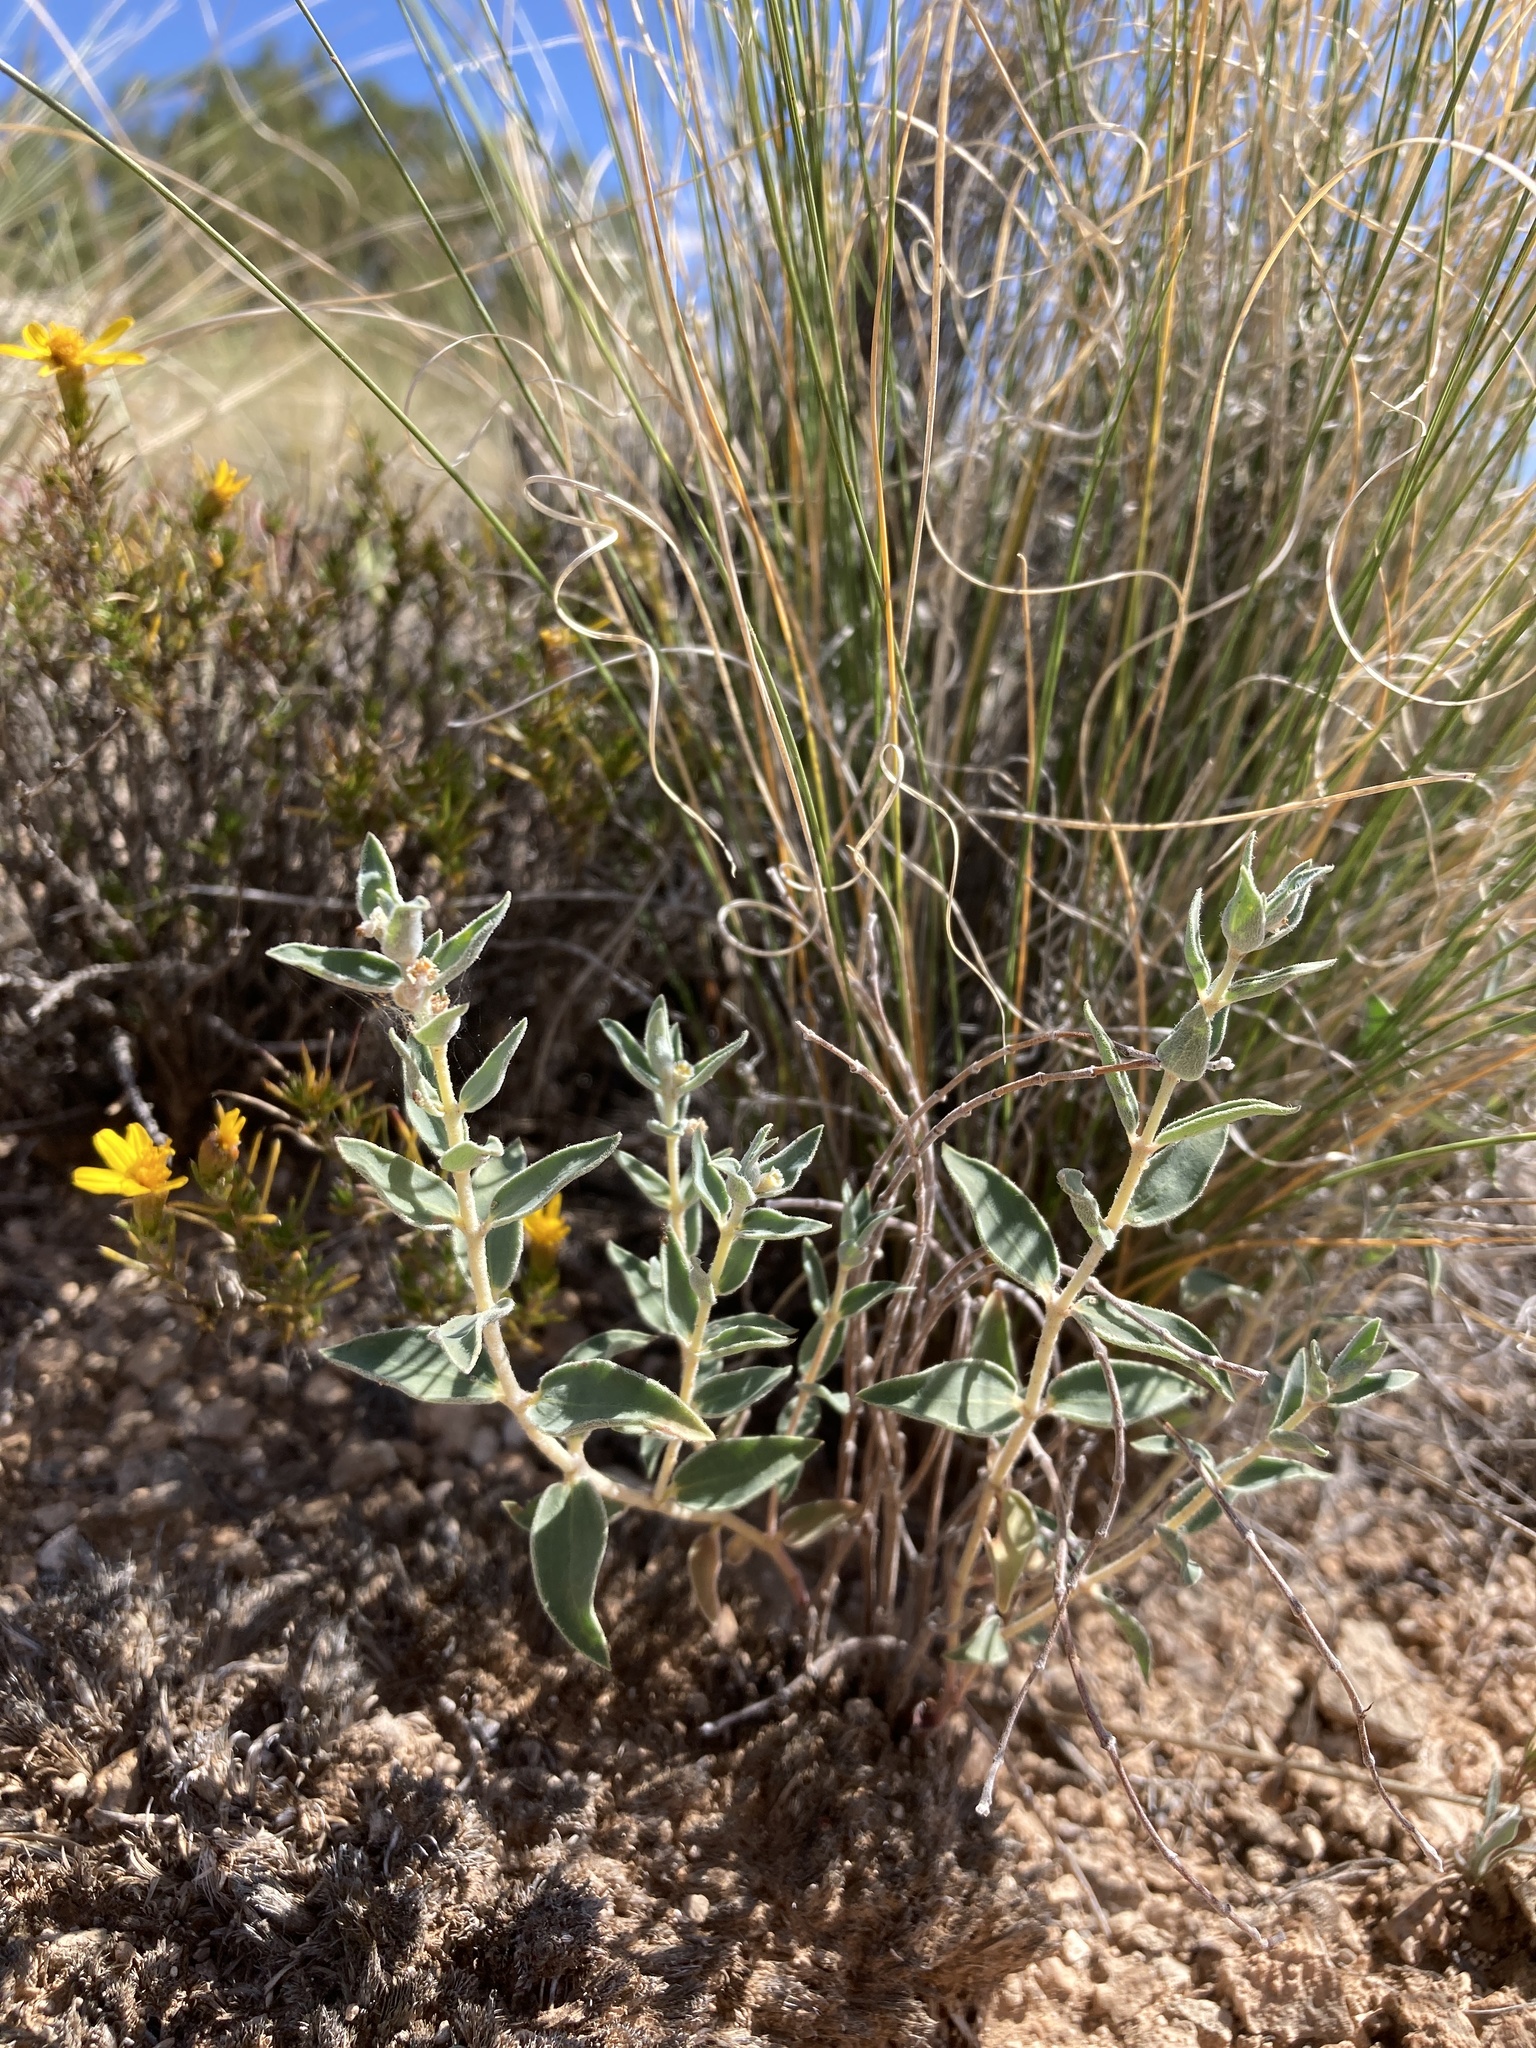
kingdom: Plantae
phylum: Tracheophyta
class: Magnoliopsida
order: Malpighiales
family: Euphorbiaceae
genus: Euphorbia
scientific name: Euphorbia acuta
